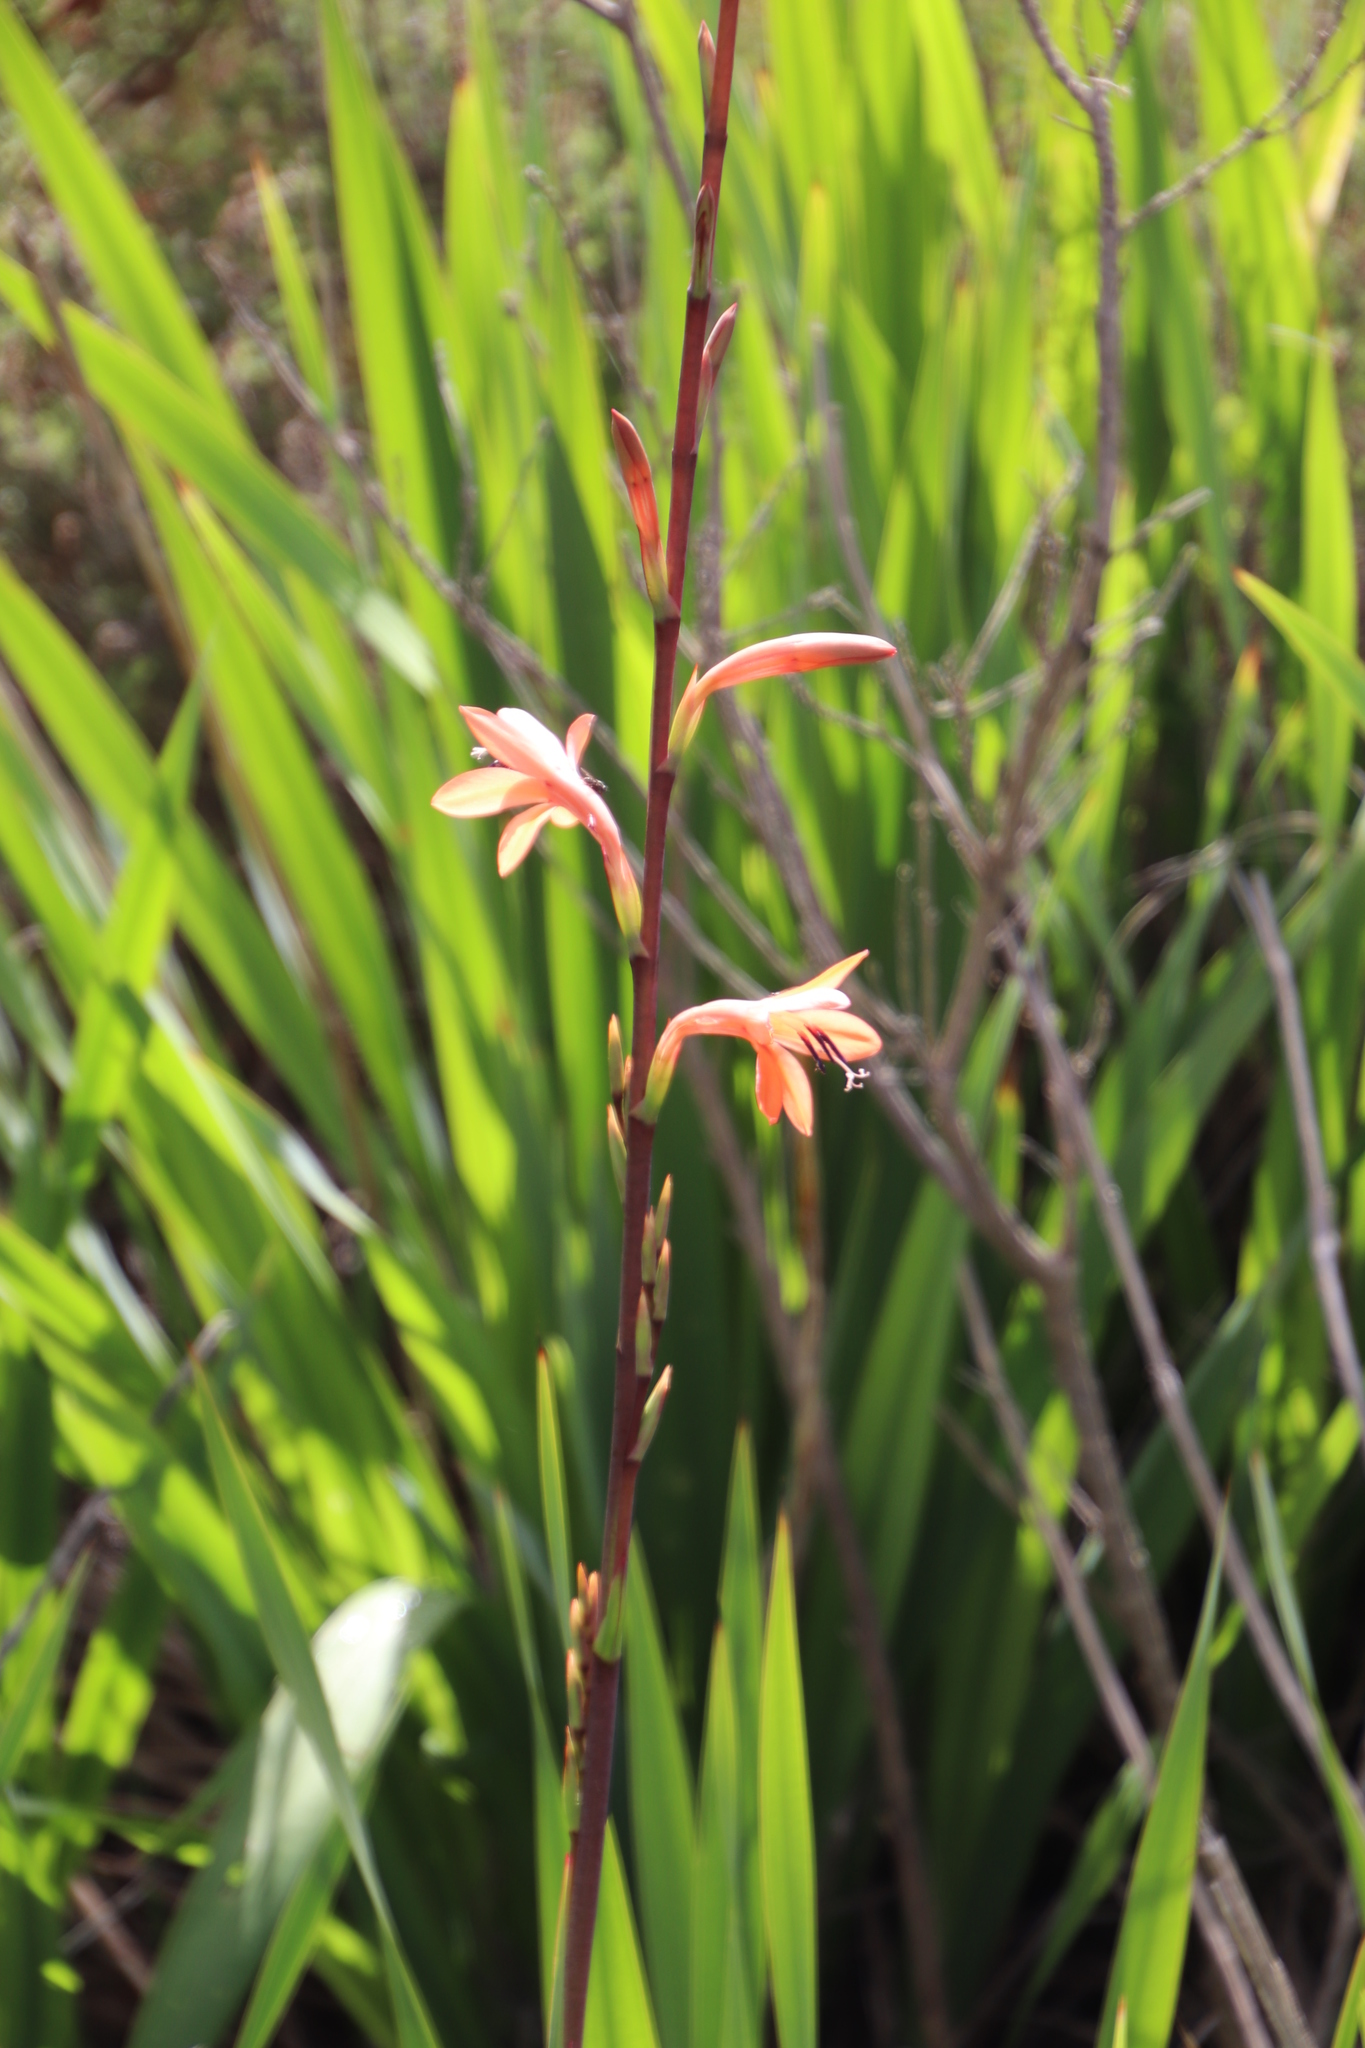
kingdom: Plantae
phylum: Tracheophyta
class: Liliopsida
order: Asparagales
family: Iridaceae
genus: Watsonia
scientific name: Watsonia meriana
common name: Bulbil bugle-lily
